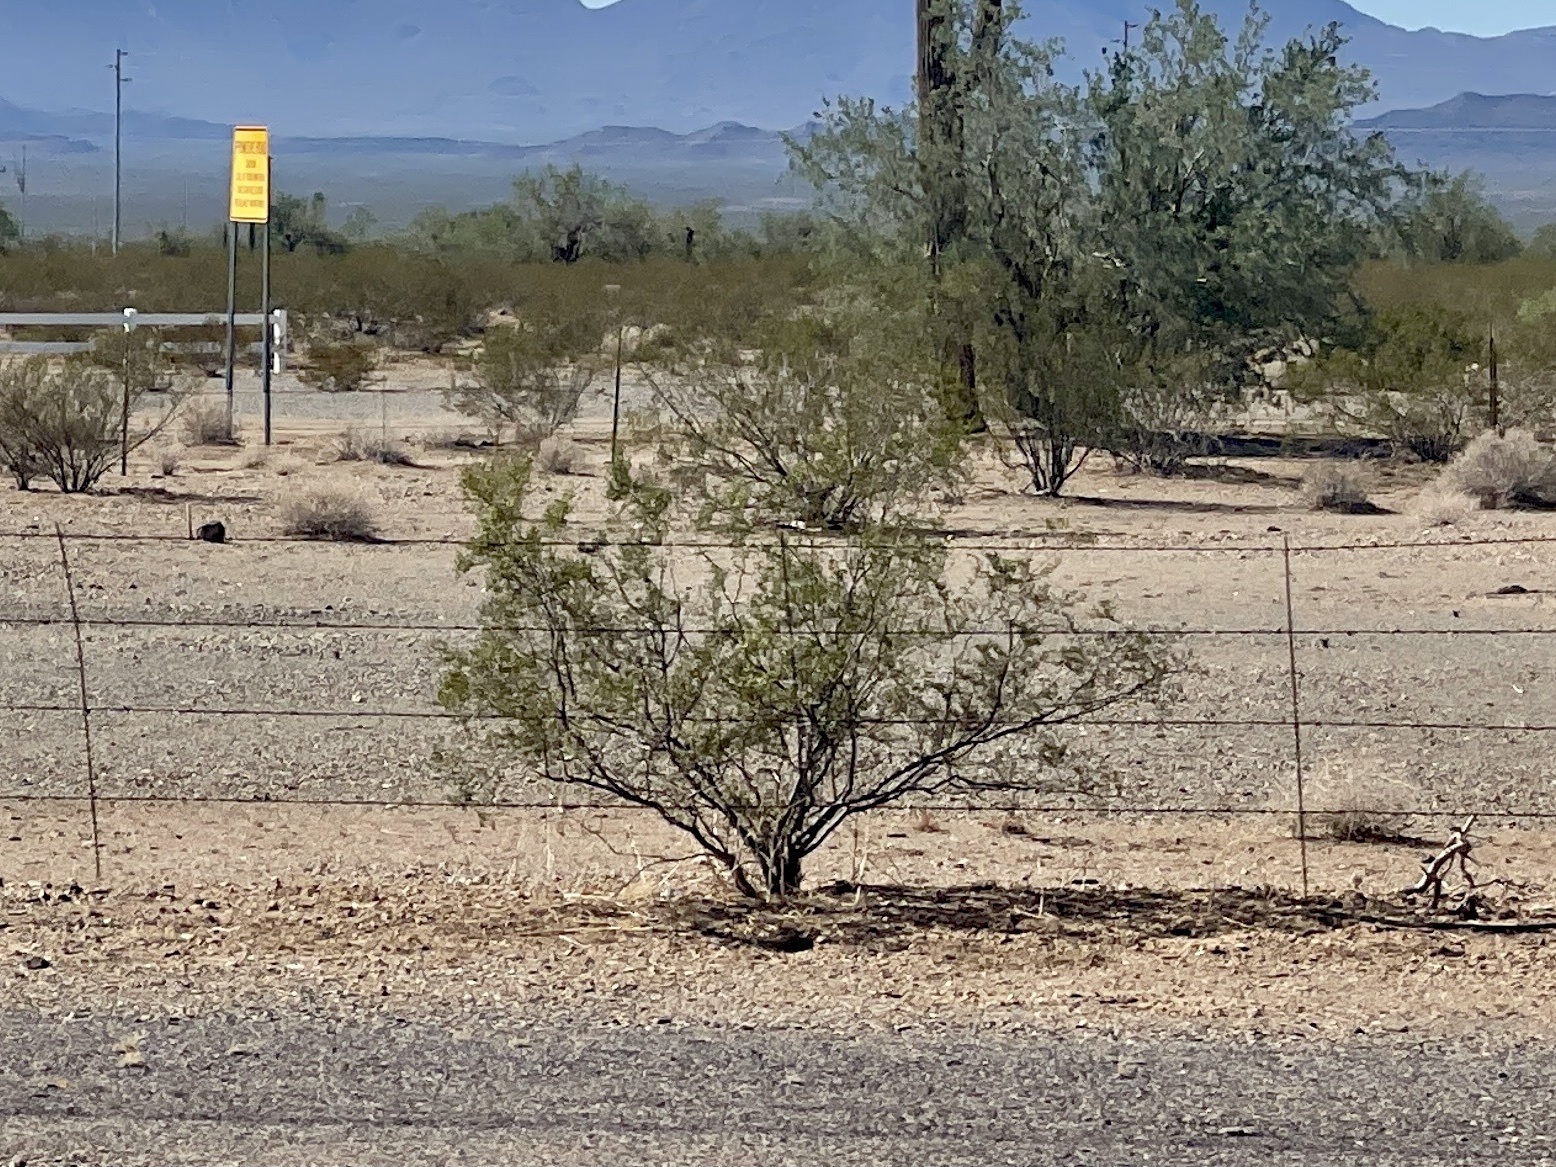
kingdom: Plantae
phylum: Tracheophyta
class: Magnoliopsida
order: Zygophyllales
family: Zygophyllaceae
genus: Larrea
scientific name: Larrea tridentata
